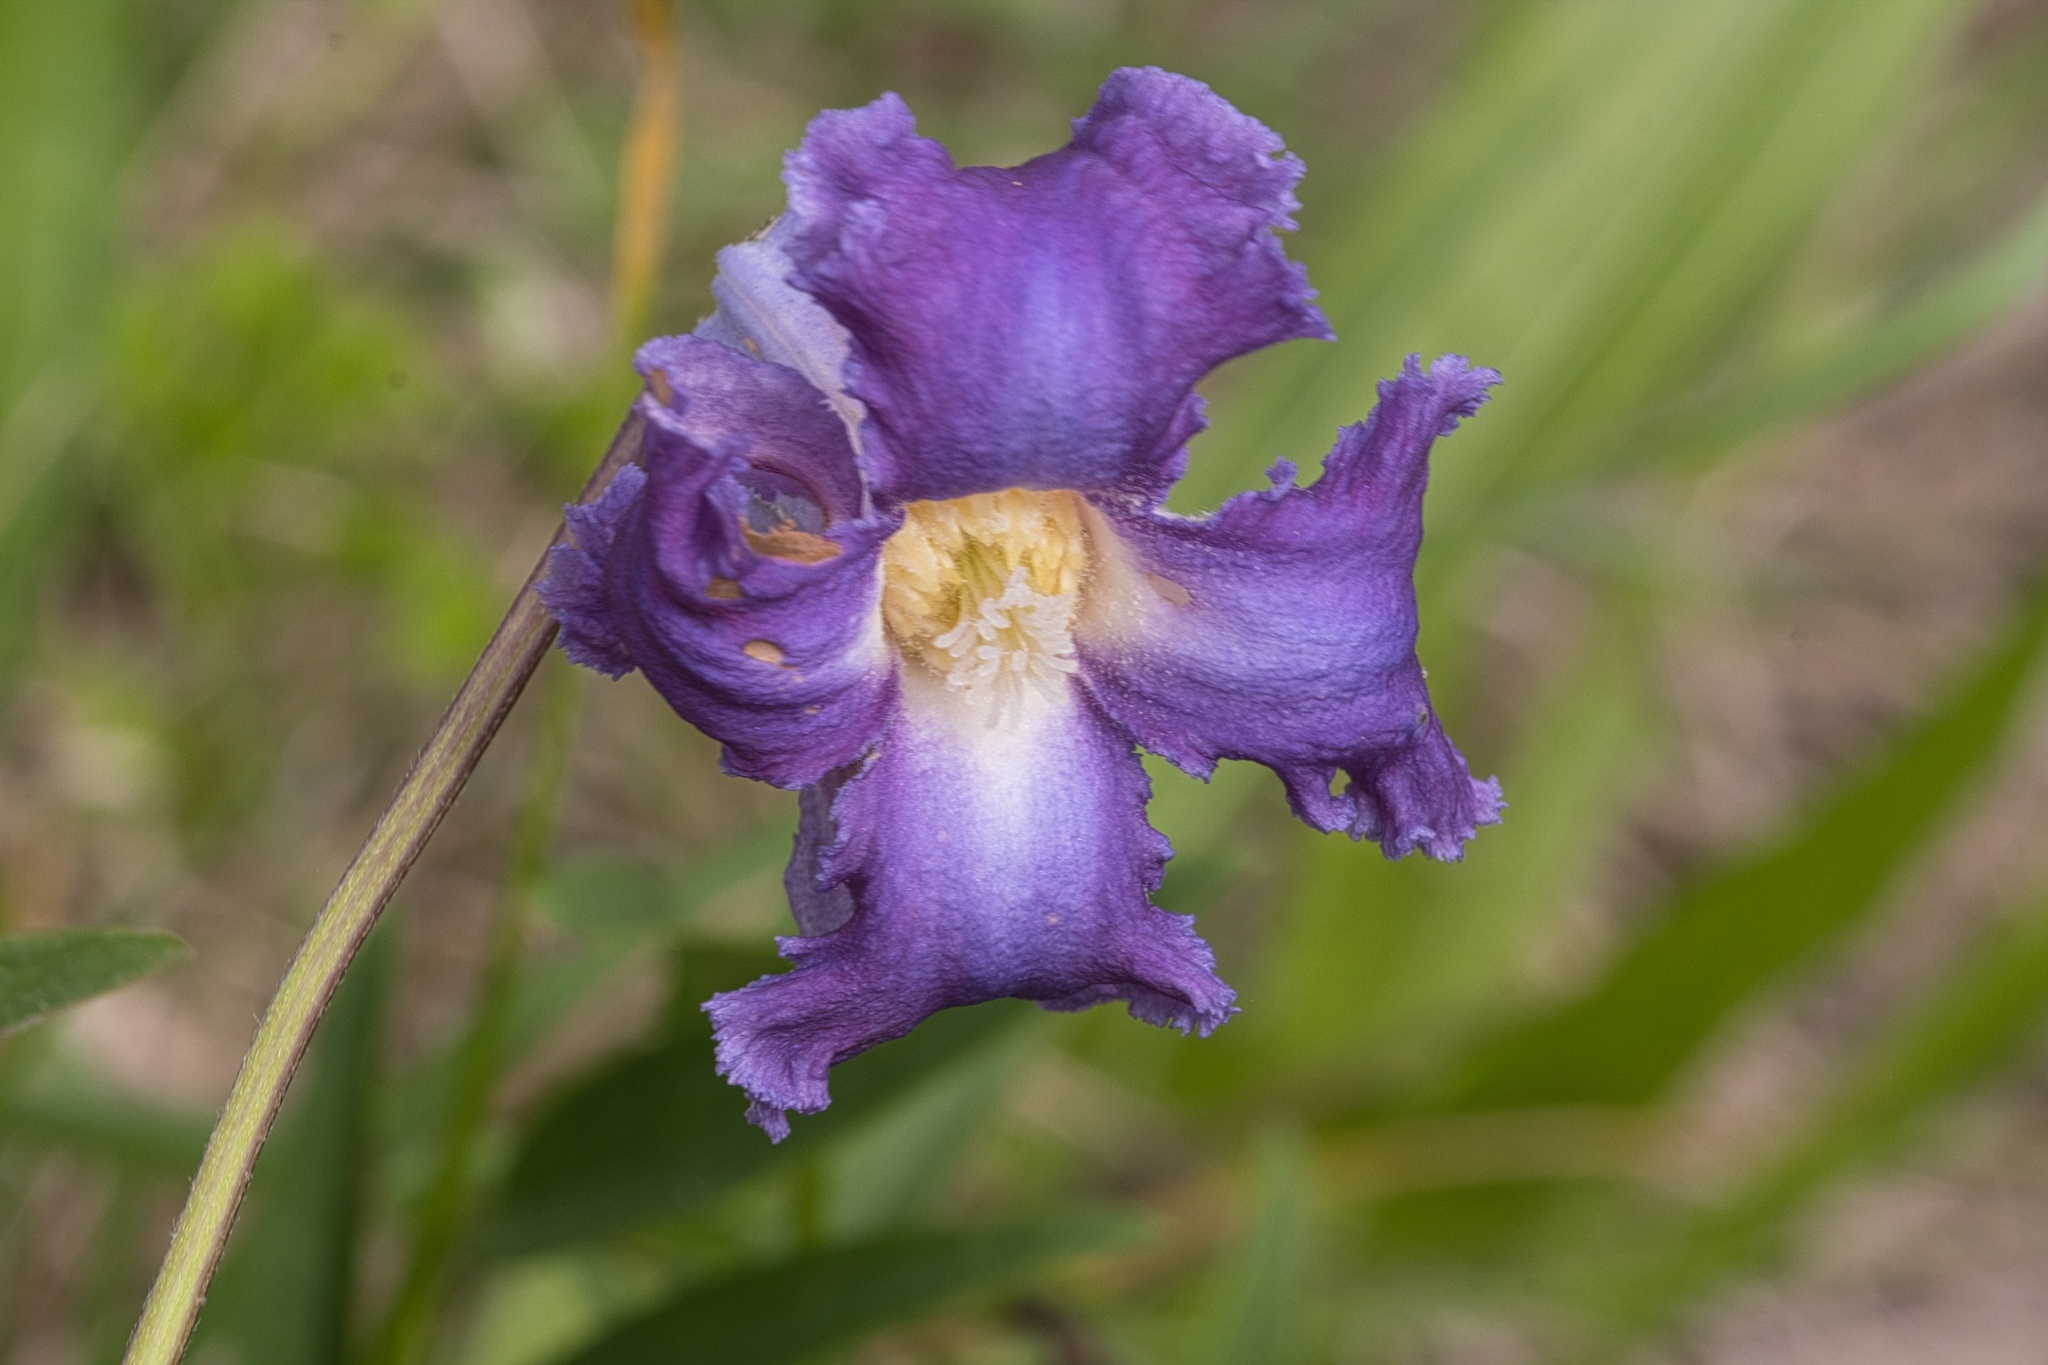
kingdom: Plantae
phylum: Tracheophyta
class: Magnoliopsida
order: Ranunculales
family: Ranunculaceae
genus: Clematis
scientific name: Clematis crispa
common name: Curly clematis
